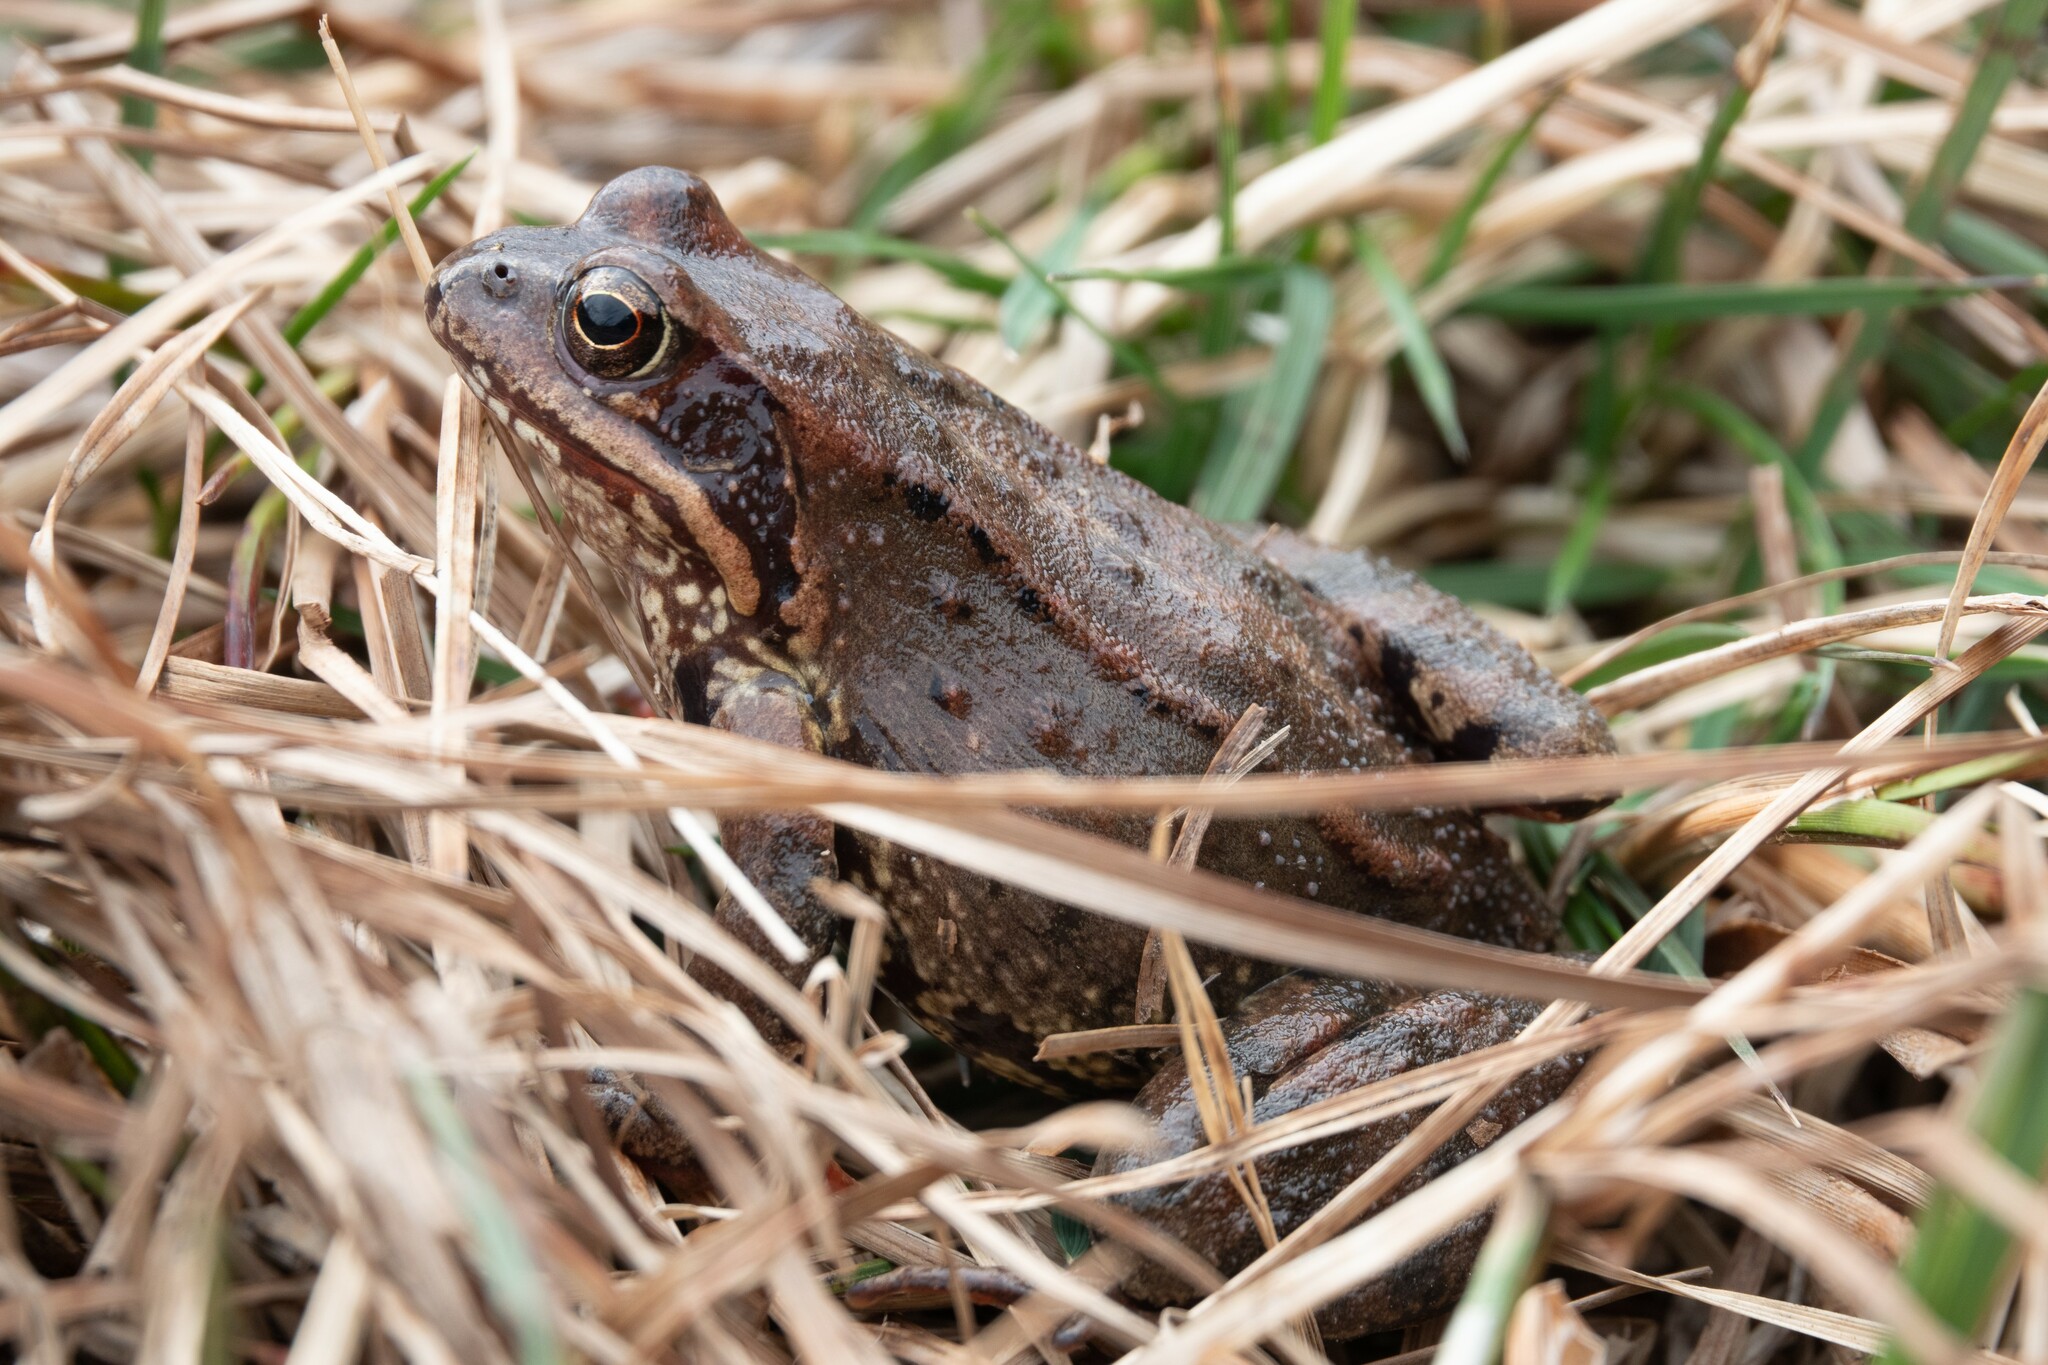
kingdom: Animalia
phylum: Chordata
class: Amphibia
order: Anura
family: Ranidae
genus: Rana
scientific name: Rana temporaria
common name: Common frog
